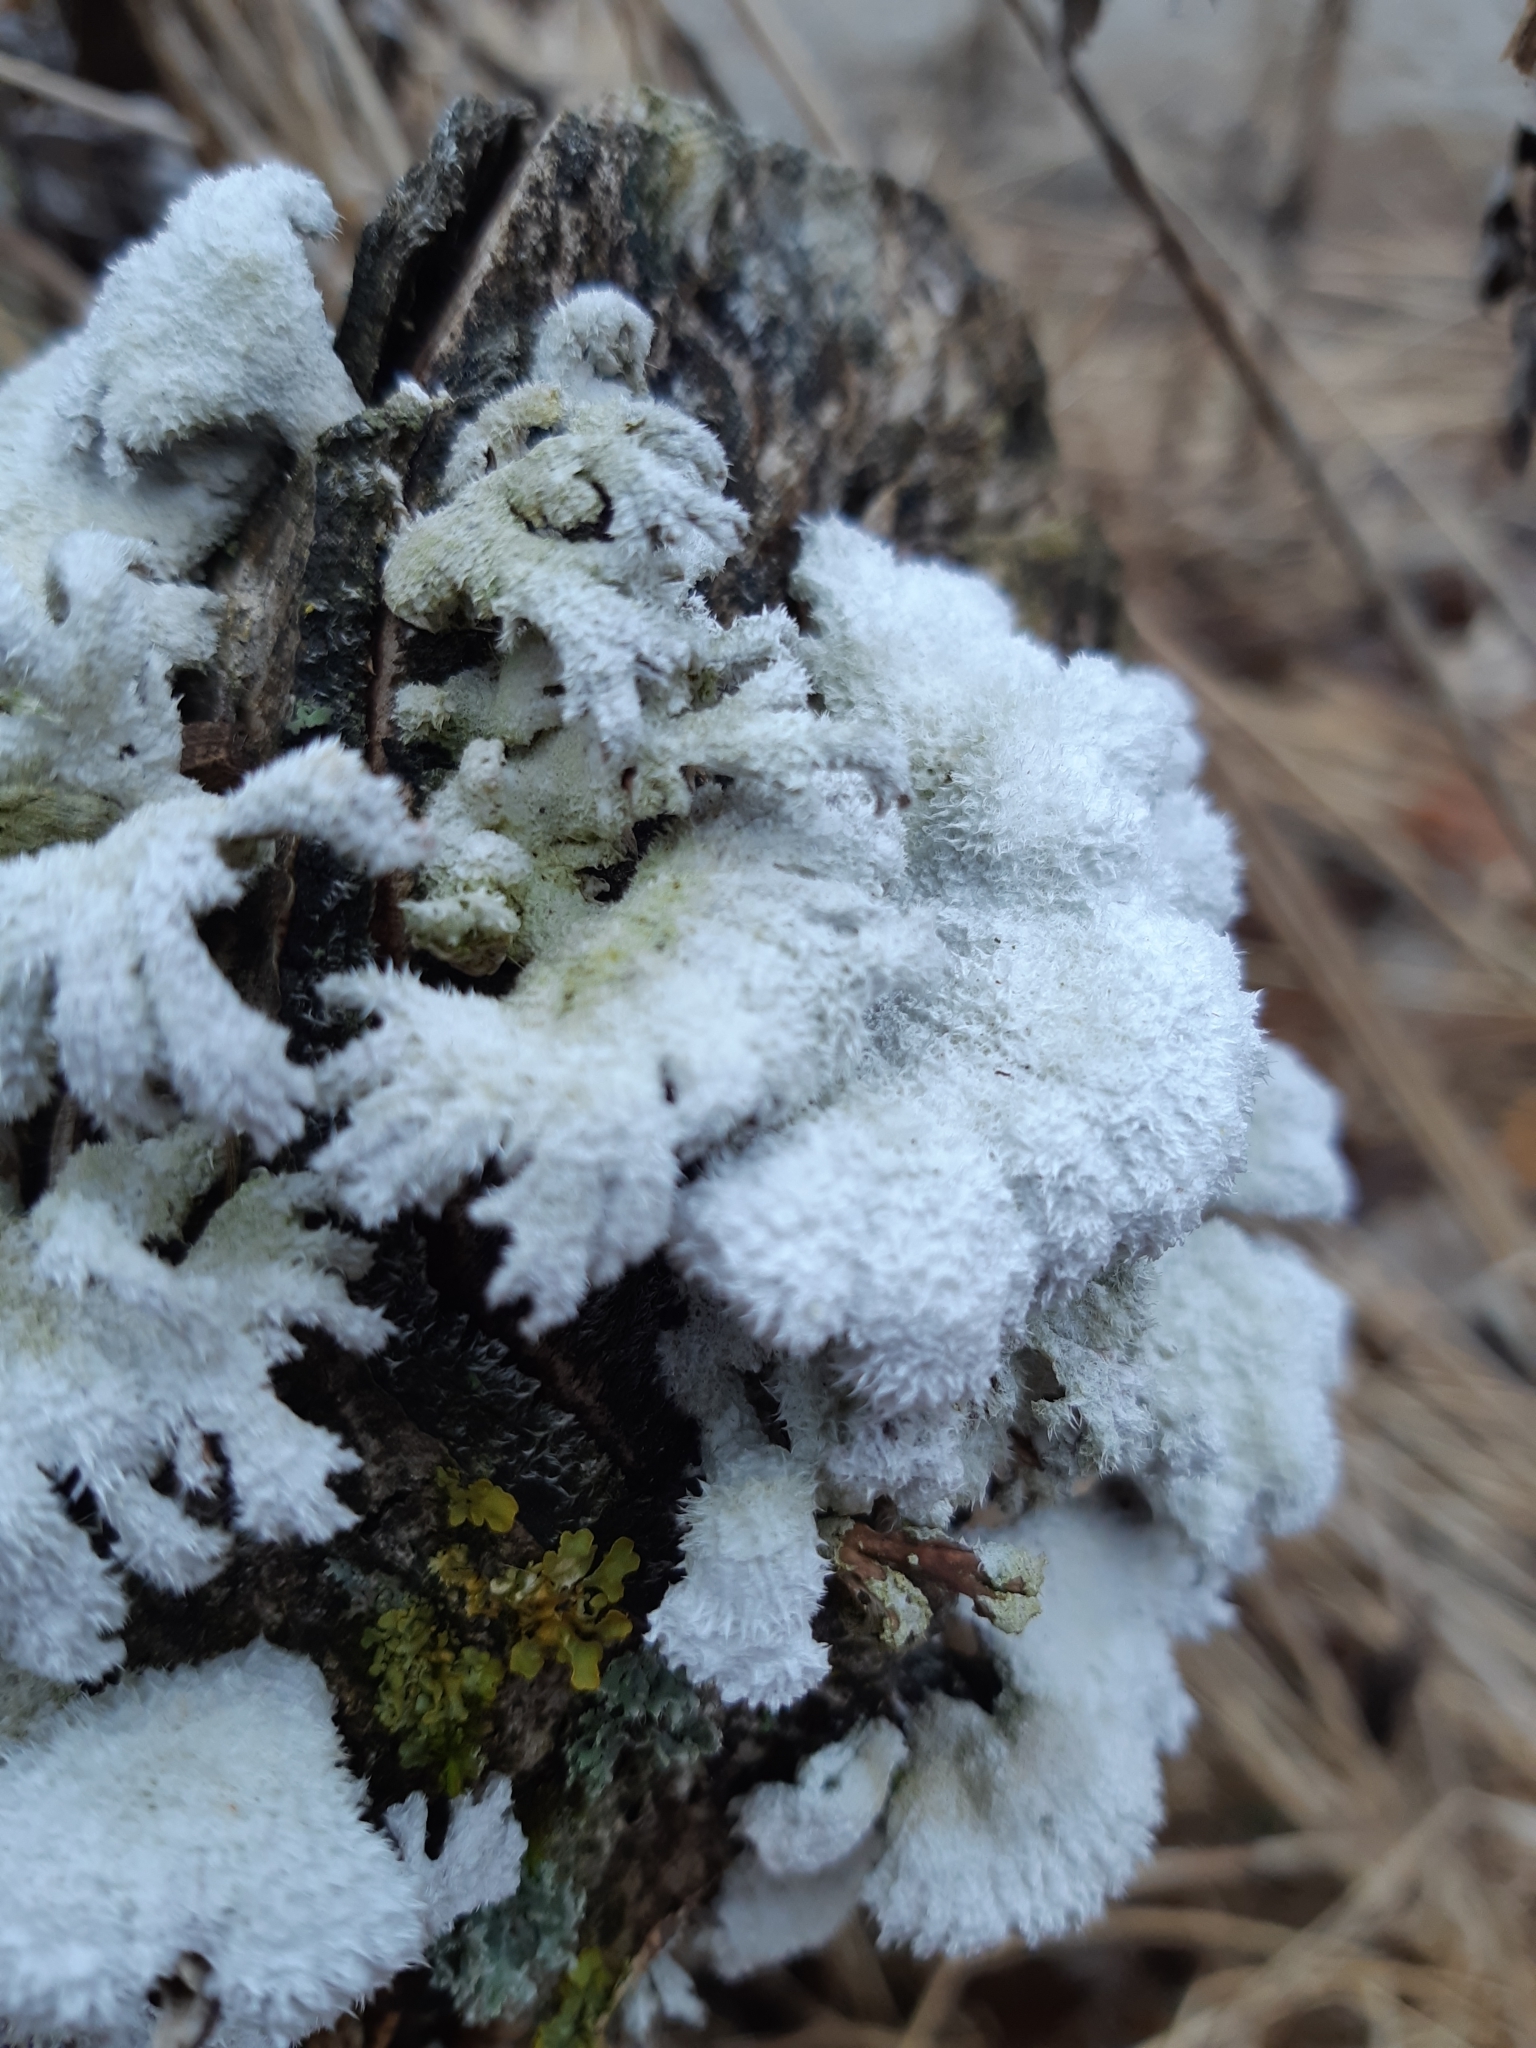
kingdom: Fungi
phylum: Basidiomycota
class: Agaricomycetes
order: Agaricales
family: Schizophyllaceae
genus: Schizophyllum
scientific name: Schizophyllum commune
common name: Common porecrust
